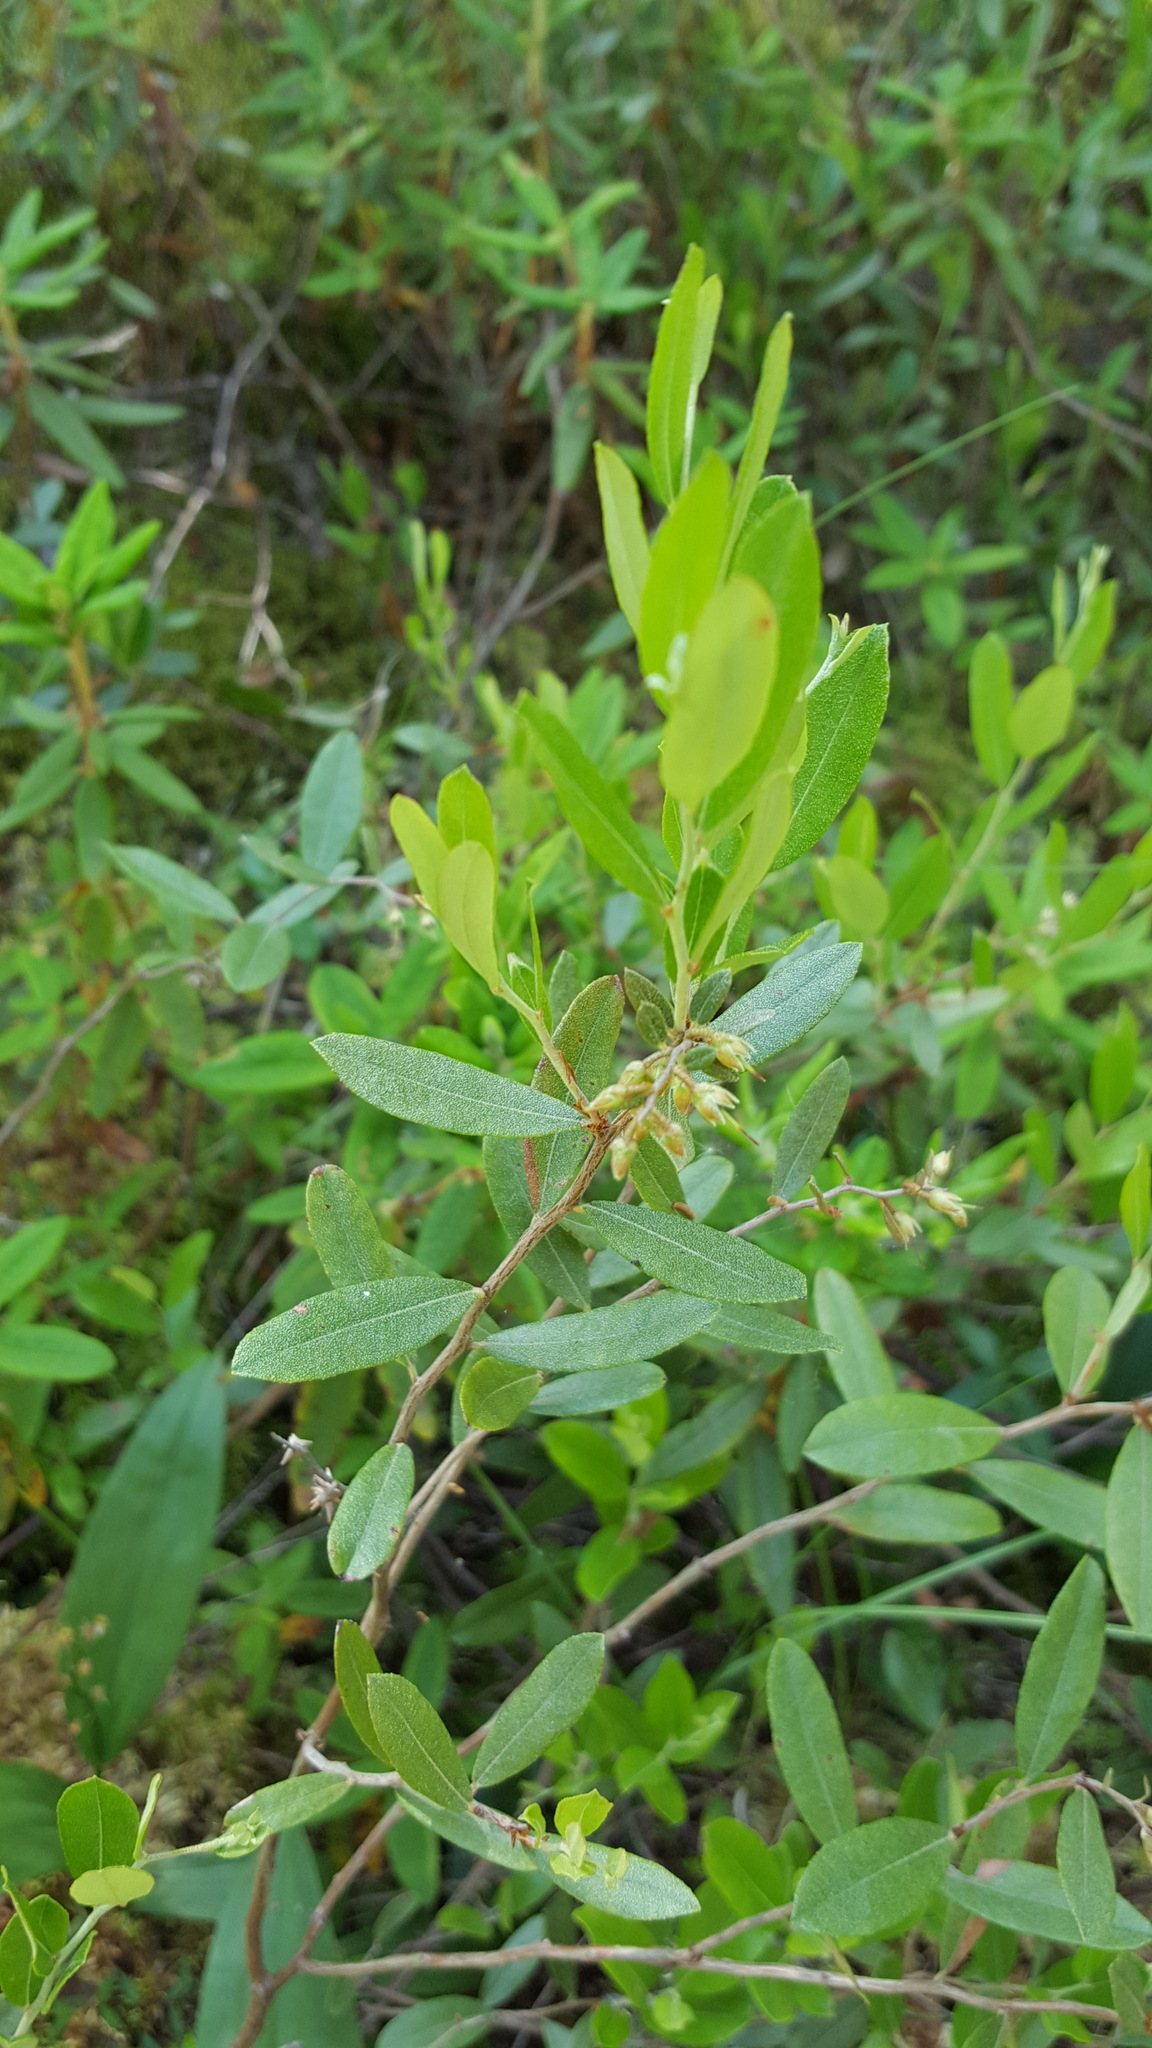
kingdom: Plantae
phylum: Tracheophyta
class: Magnoliopsida
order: Ericales
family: Ericaceae
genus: Chamaedaphne
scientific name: Chamaedaphne calyculata
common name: Leatherleaf
